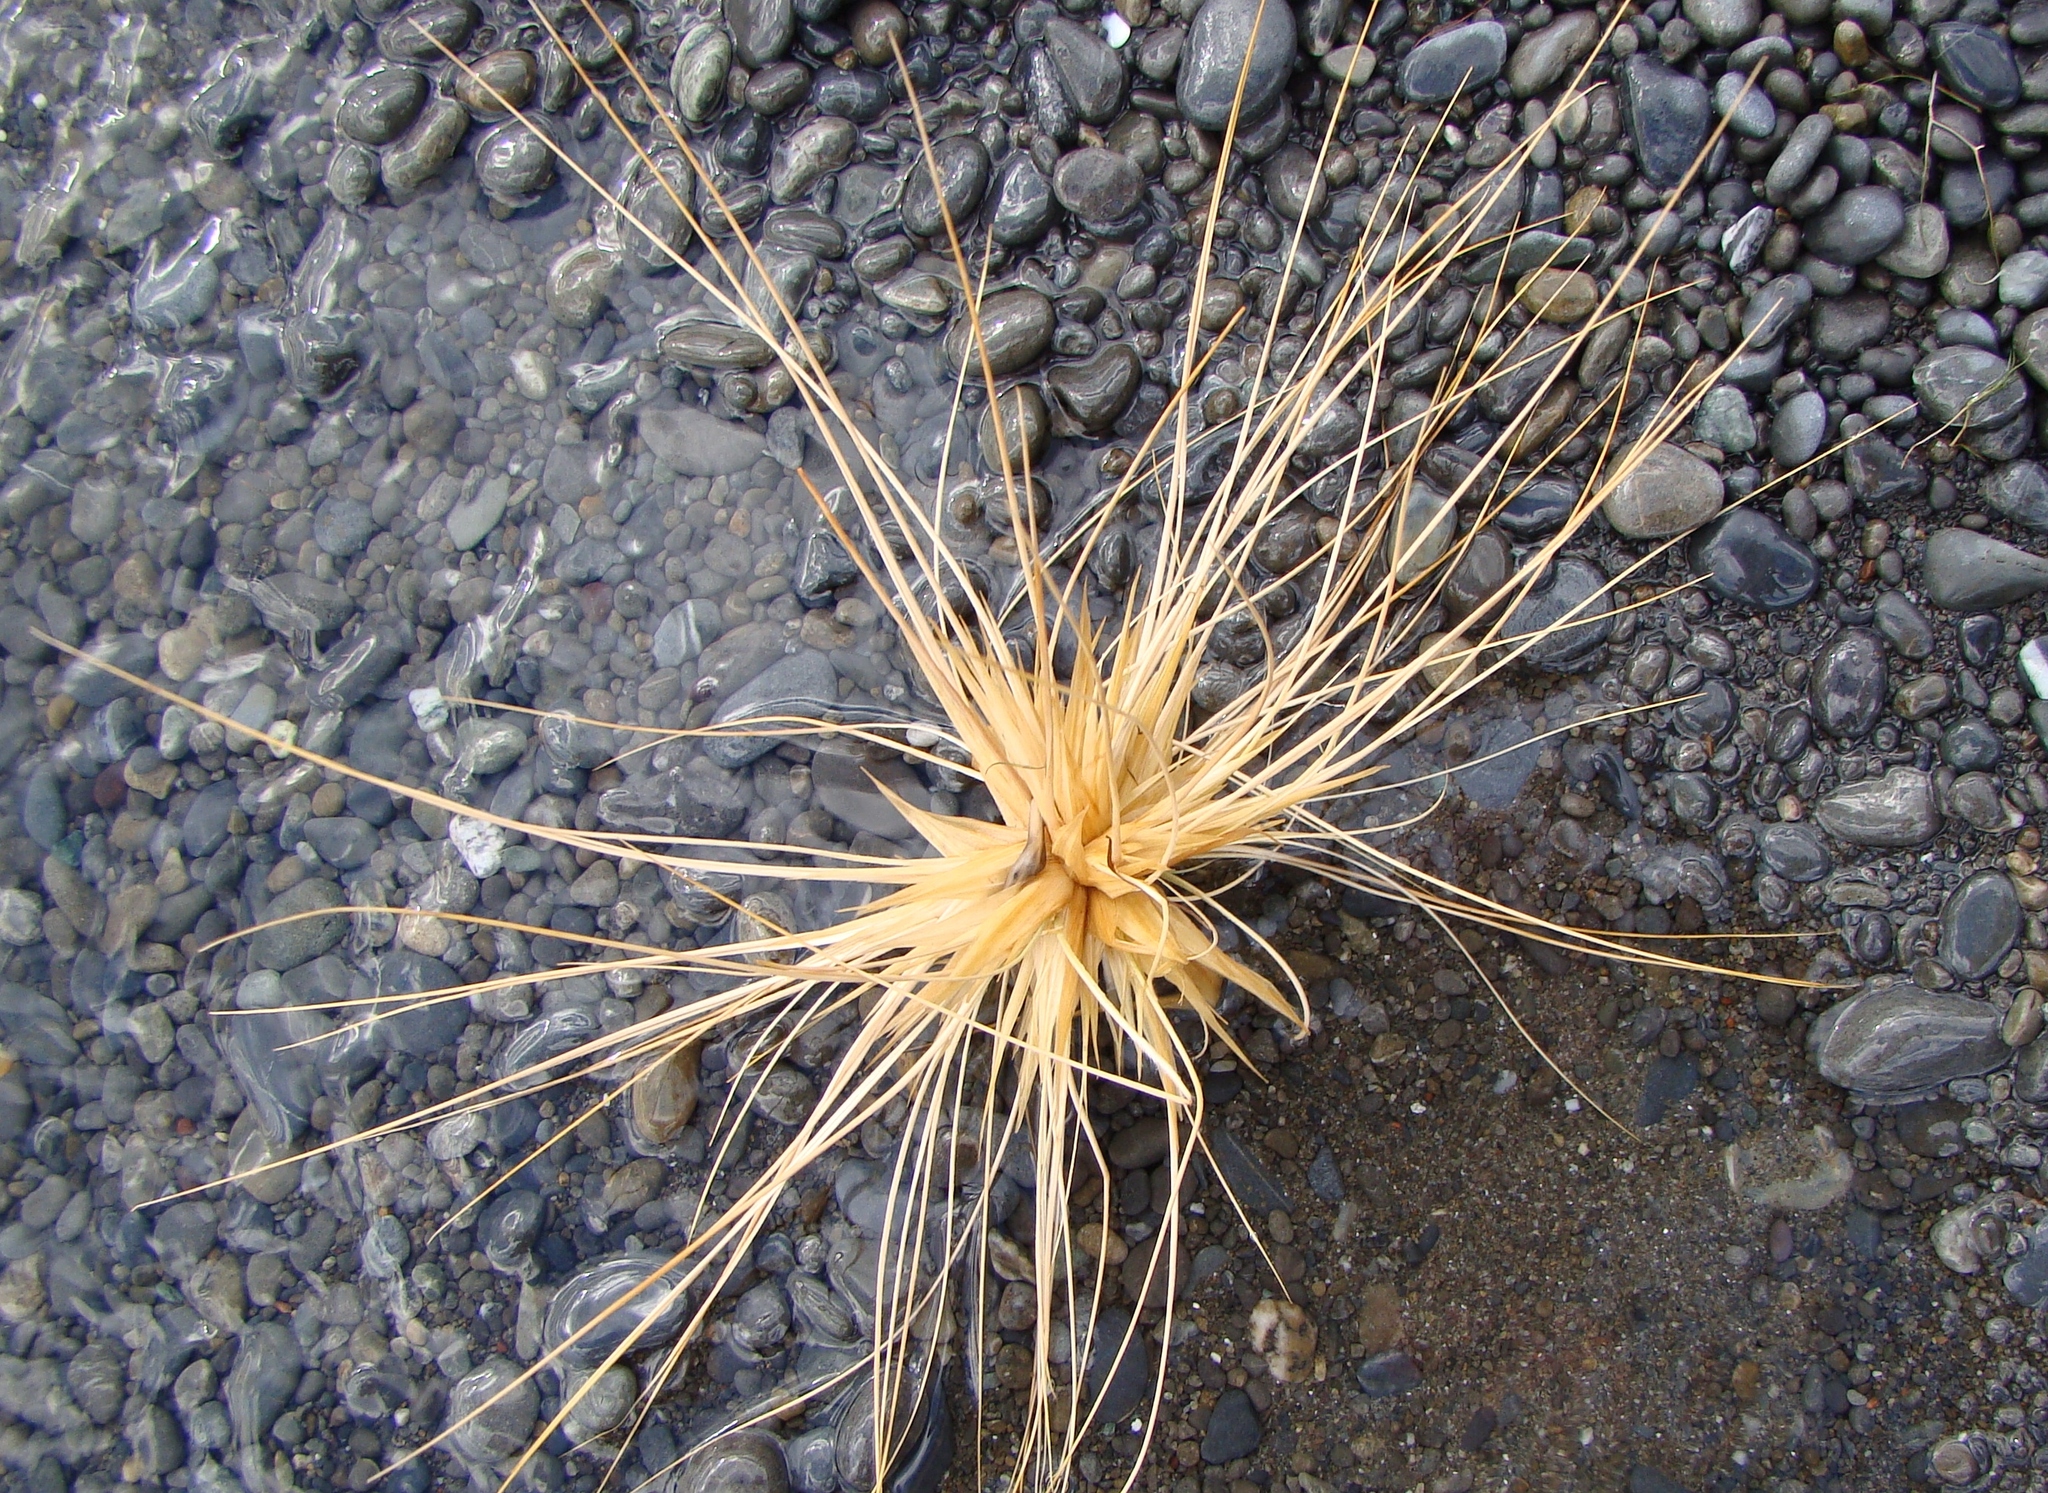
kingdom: Plantae
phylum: Tracheophyta
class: Liliopsida
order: Poales
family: Poaceae
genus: Spinifex
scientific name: Spinifex sericeus
